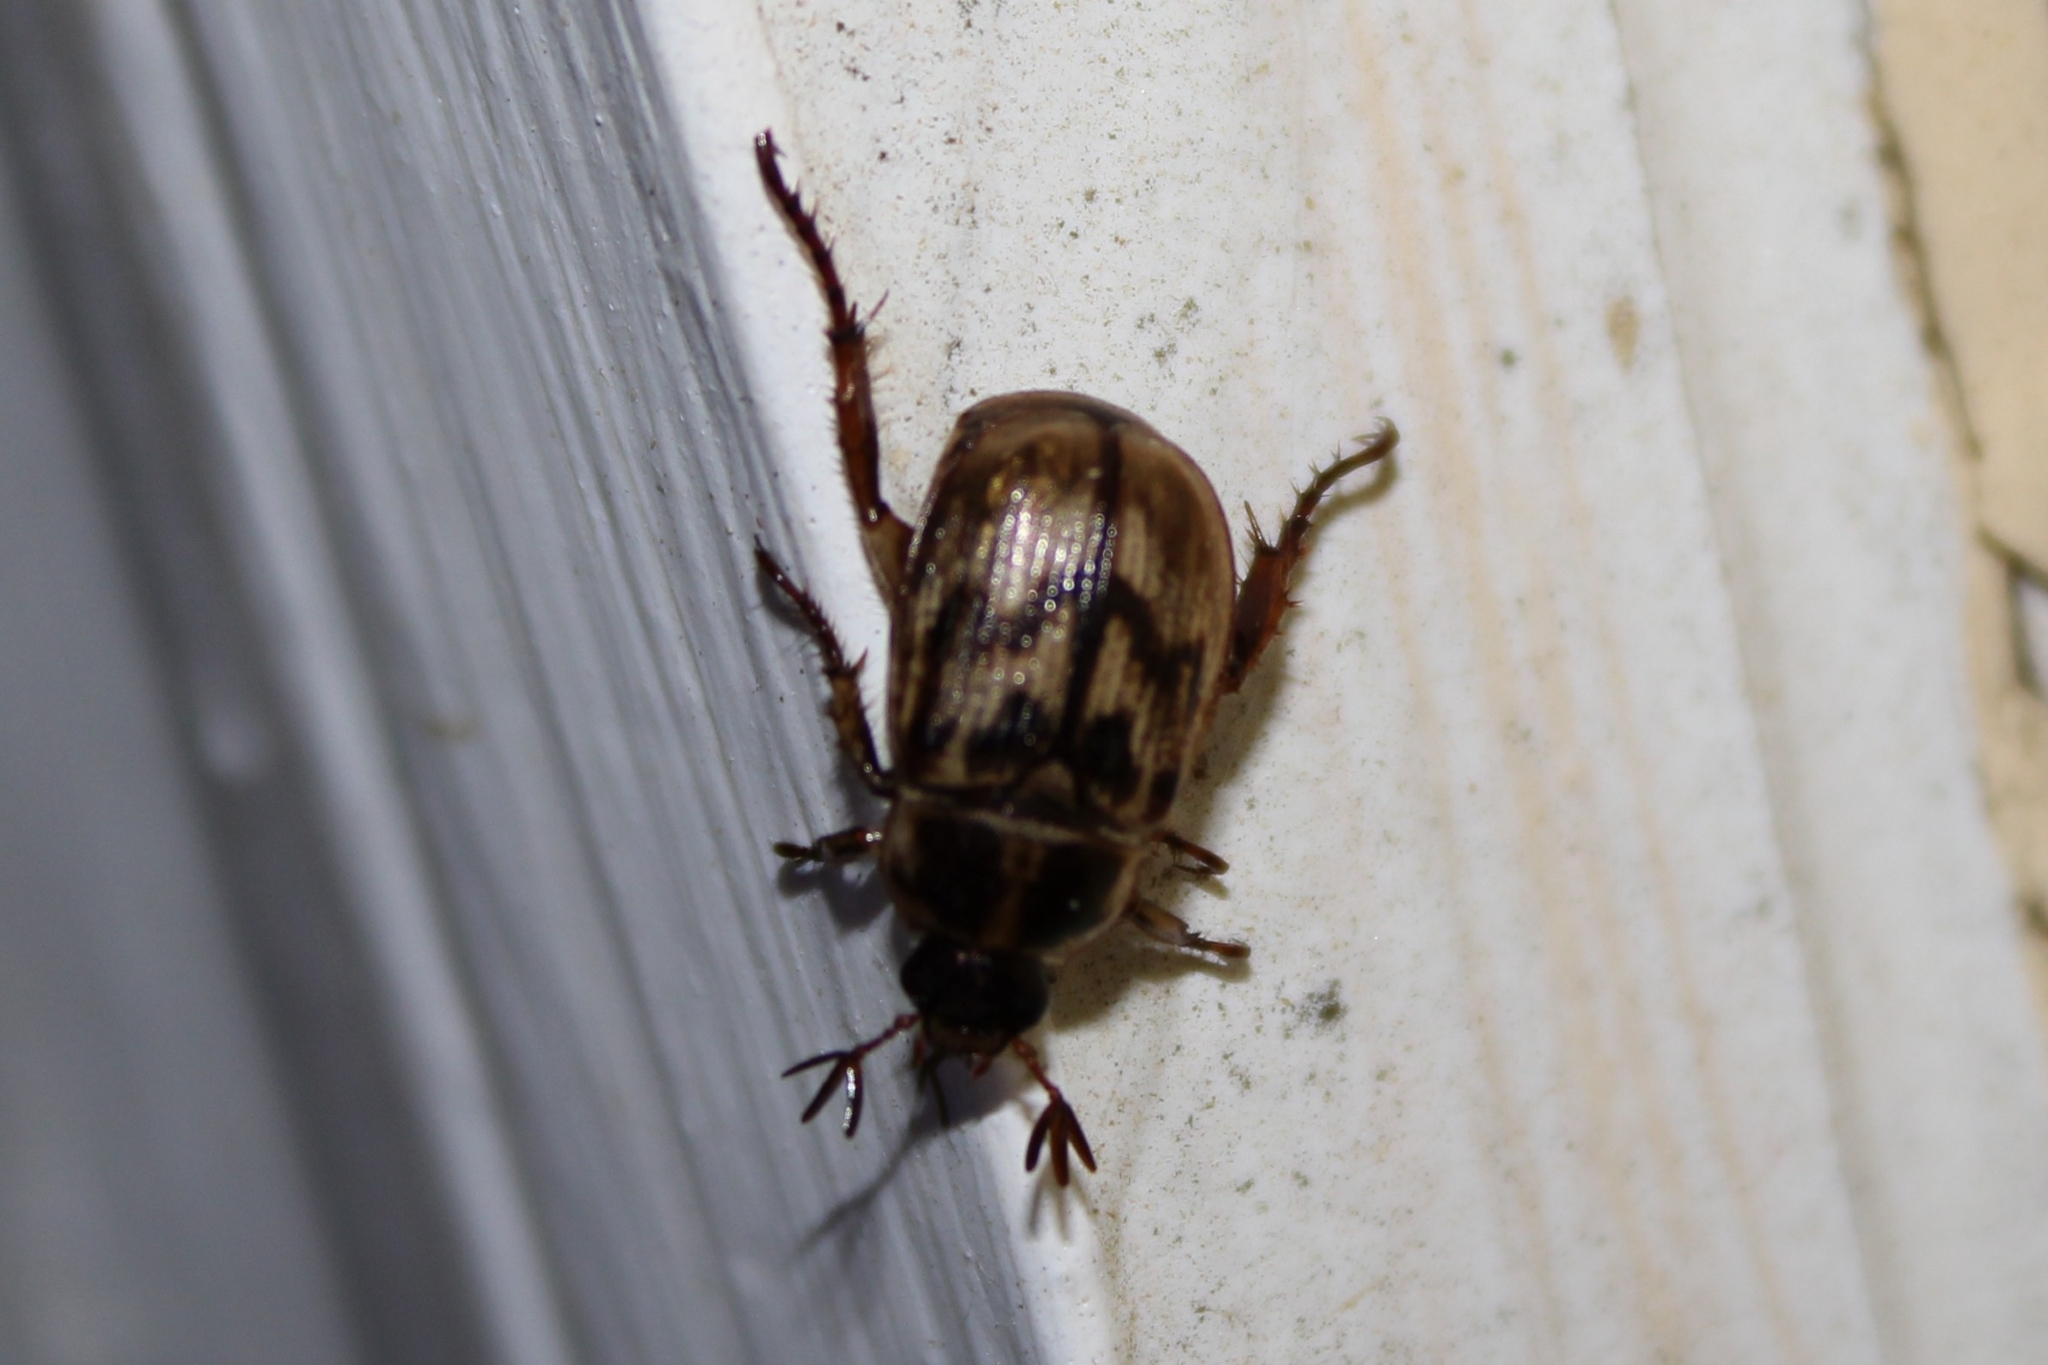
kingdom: Animalia
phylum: Arthropoda
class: Insecta
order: Coleoptera
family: Scarabaeidae
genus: Exomala
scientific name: Exomala orientalis
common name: Oriental beetle
